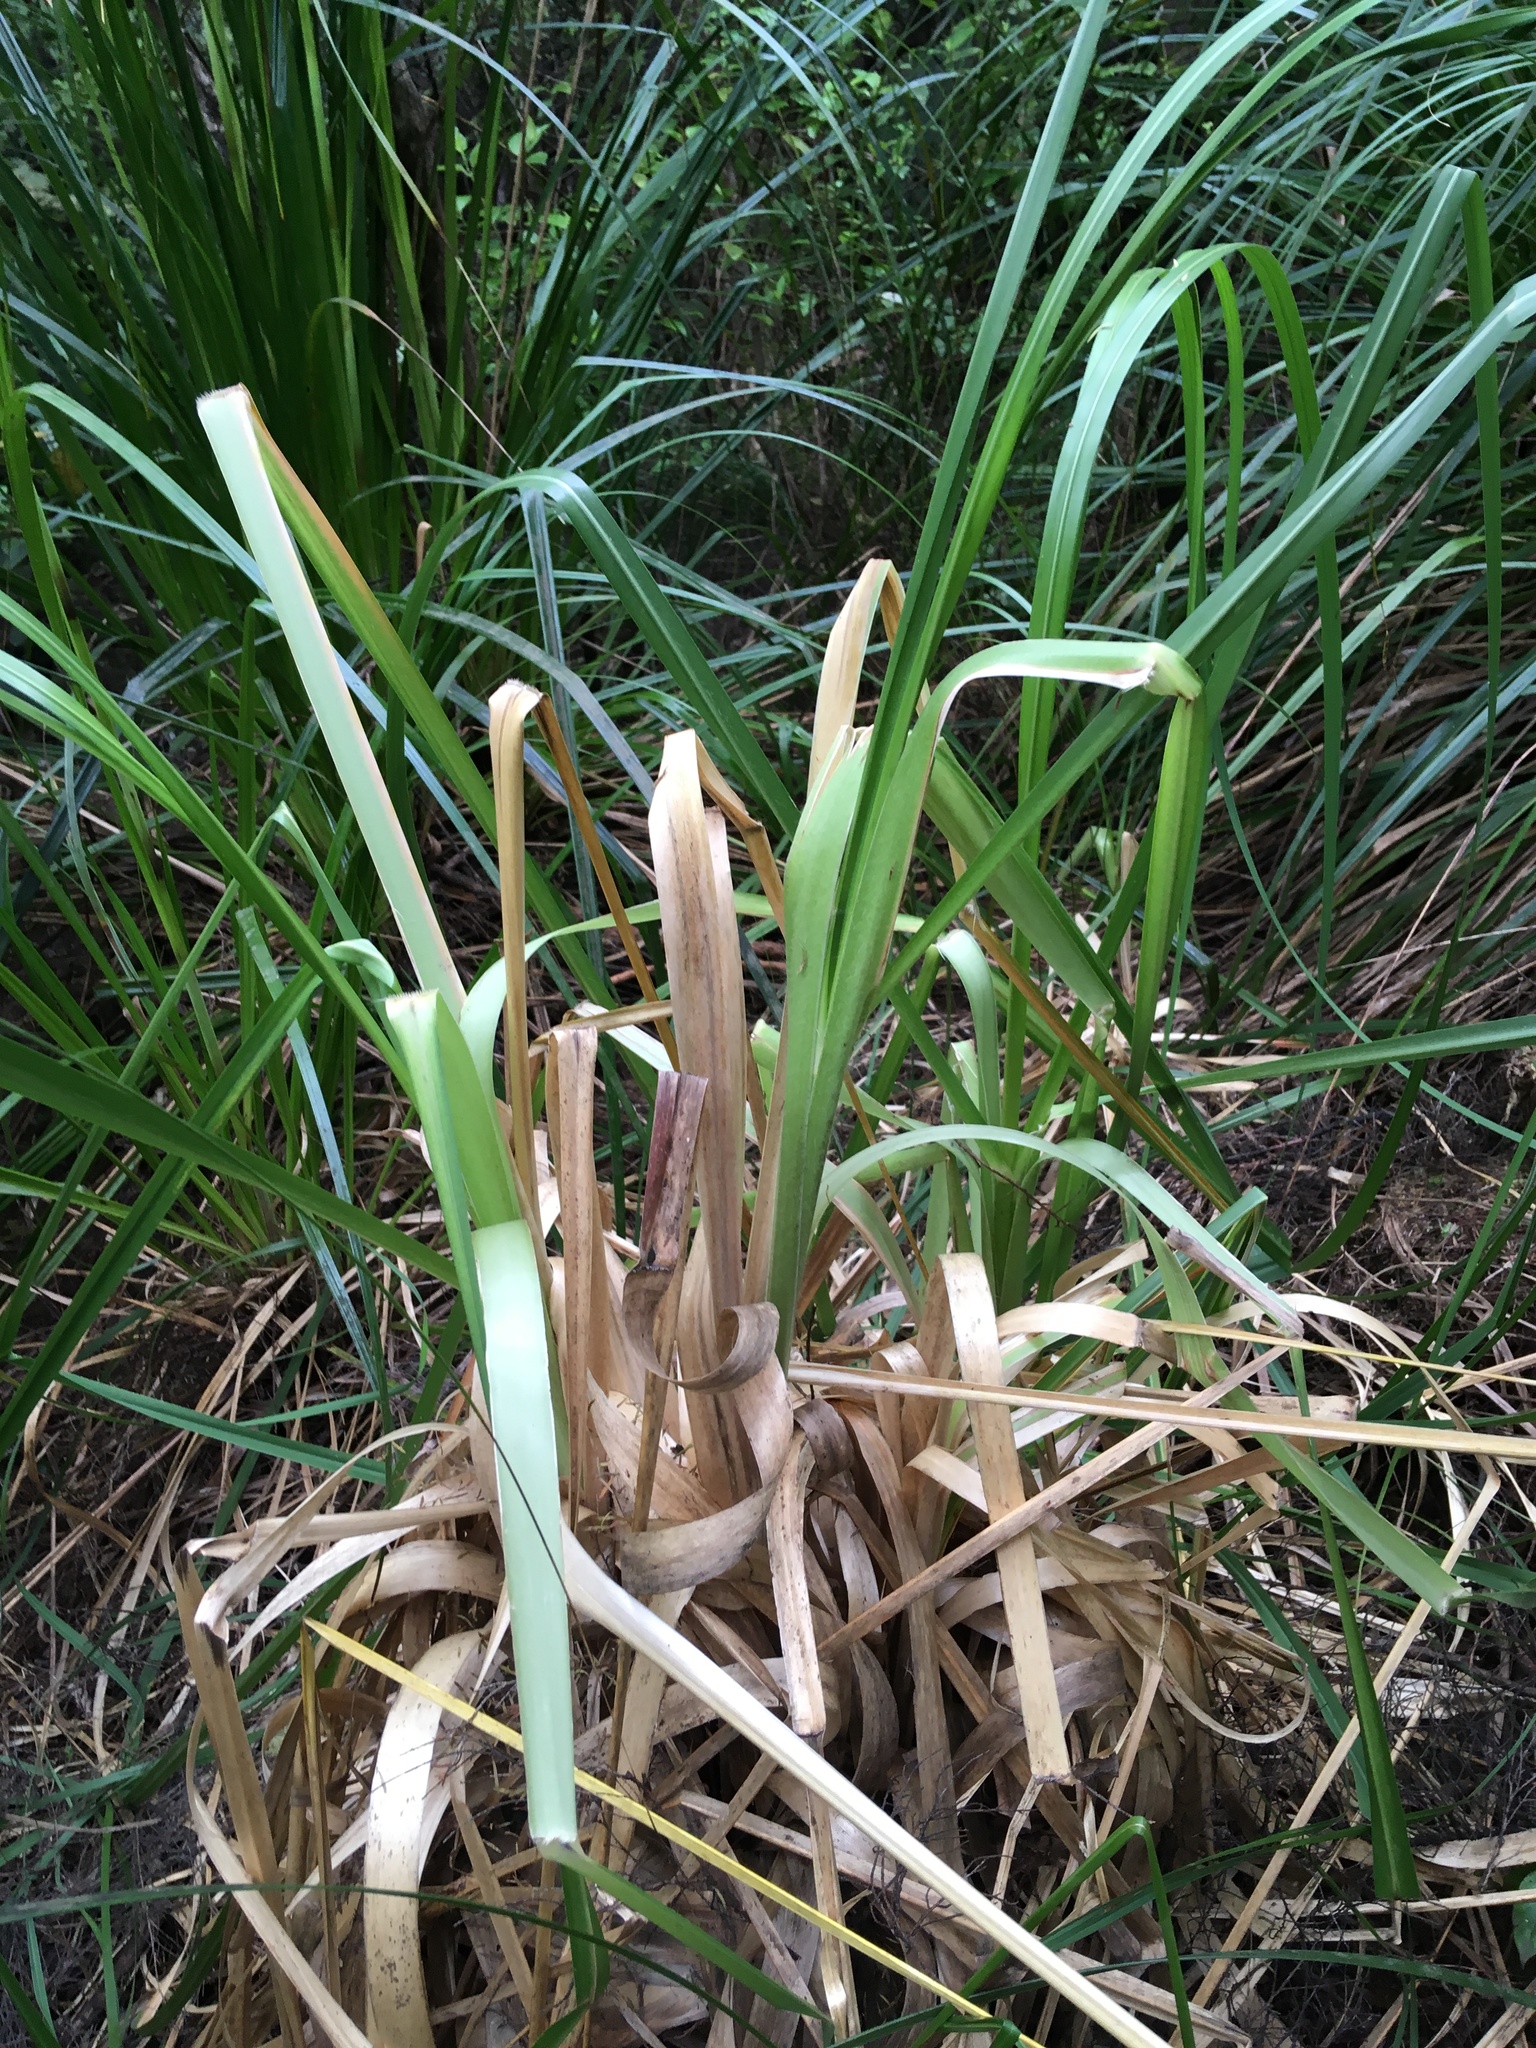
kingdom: Plantae
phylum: Tracheophyta
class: Liliopsida
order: Poales
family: Poaceae
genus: Cortaderia
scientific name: Cortaderia selloana
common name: Uruguayan pampas grass
